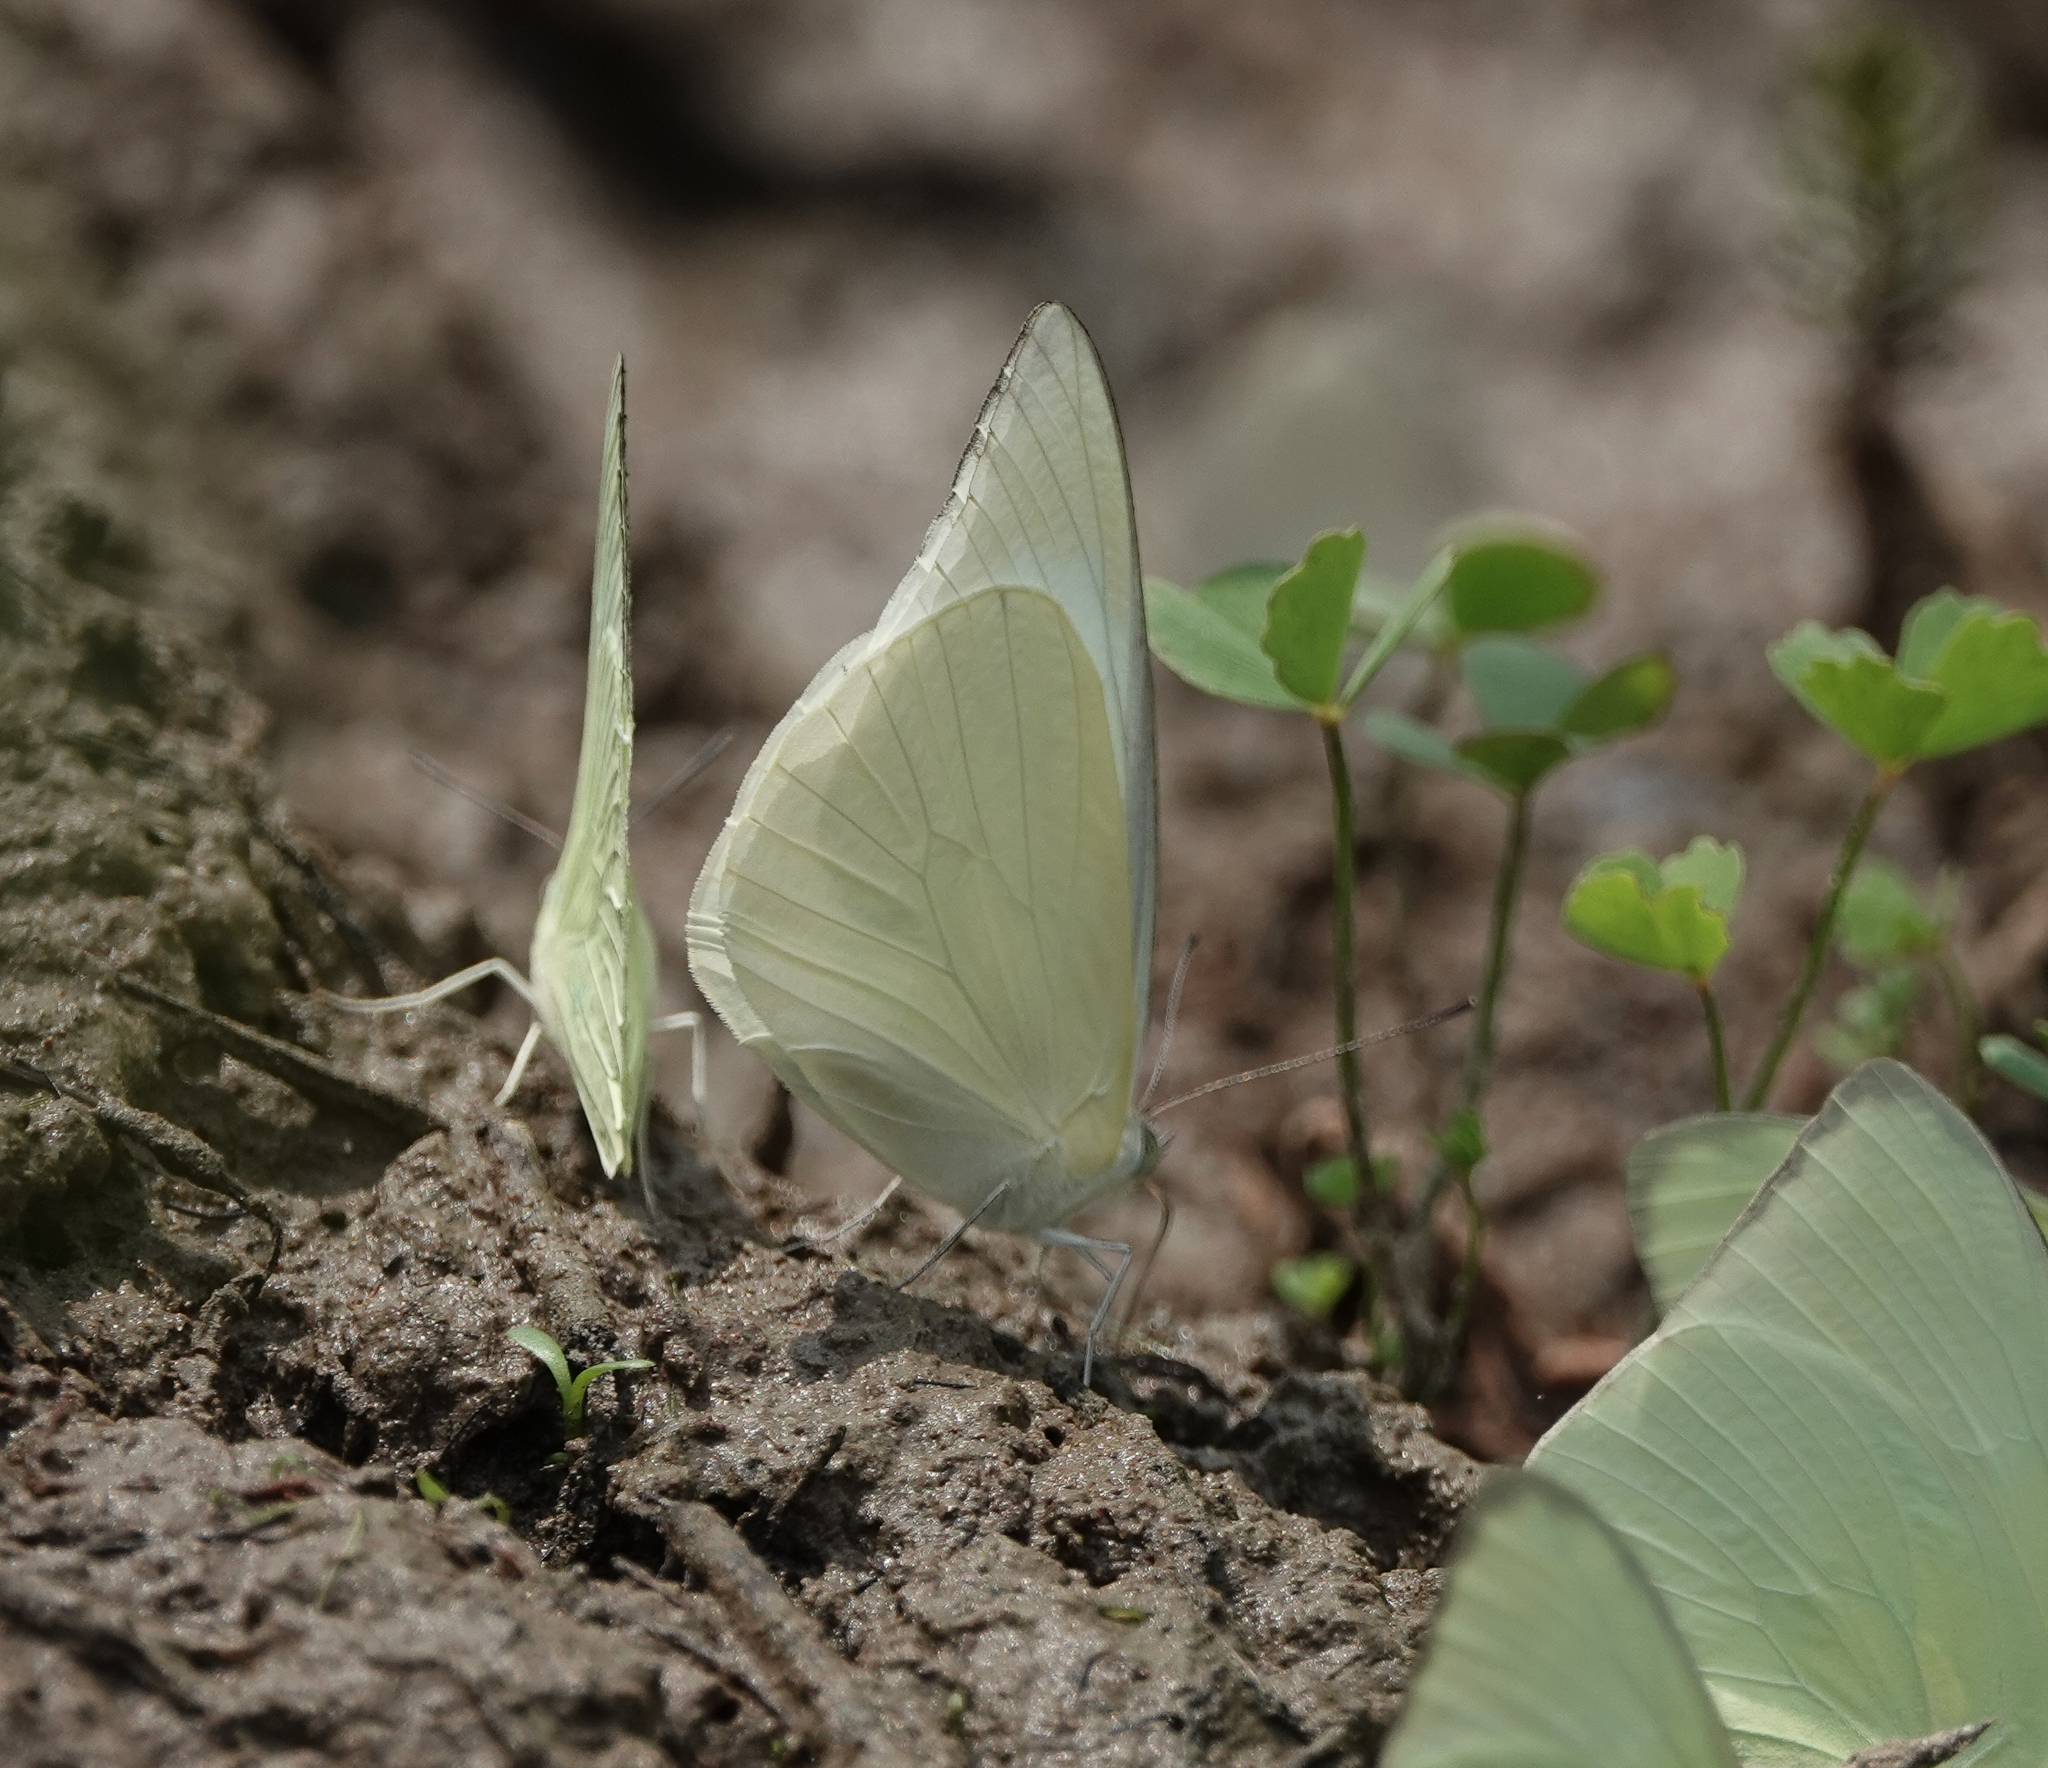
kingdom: Animalia
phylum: Arthropoda
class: Insecta
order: Lepidoptera
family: Pieridae
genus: Appias
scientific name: Appias albina
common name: Common albatross
